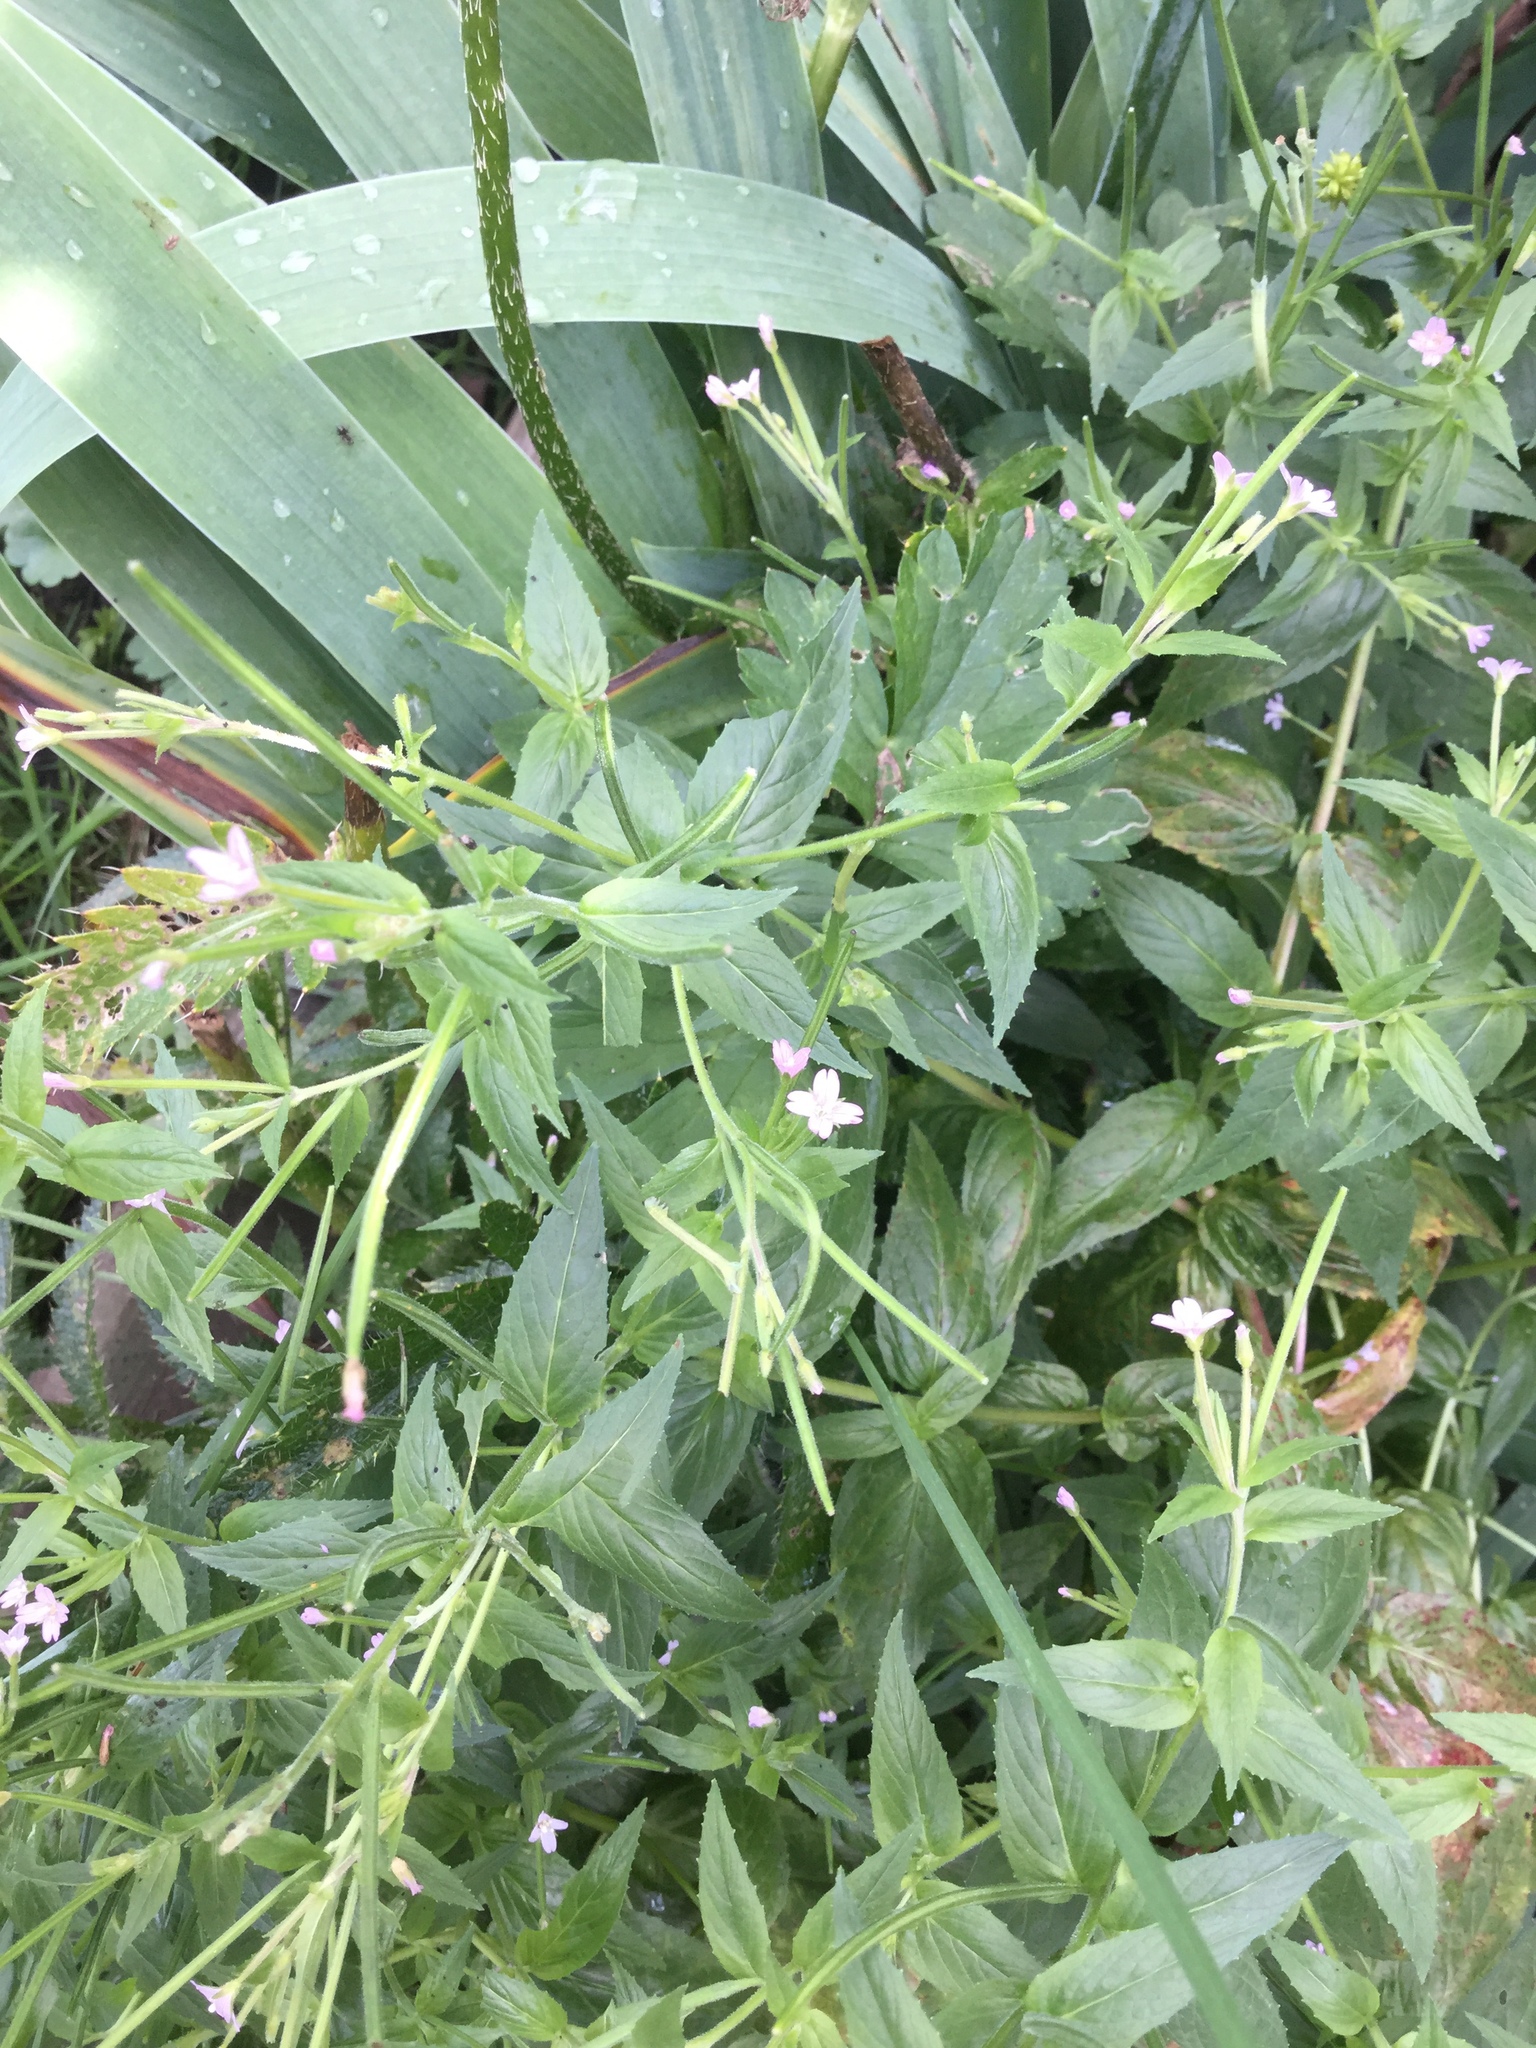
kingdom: Plantae
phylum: Tracheophyta
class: Magnoliopsida
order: Myrtales
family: Onagraceae
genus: Epilobium
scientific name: Epilobium ciliatum
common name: American willowherb
